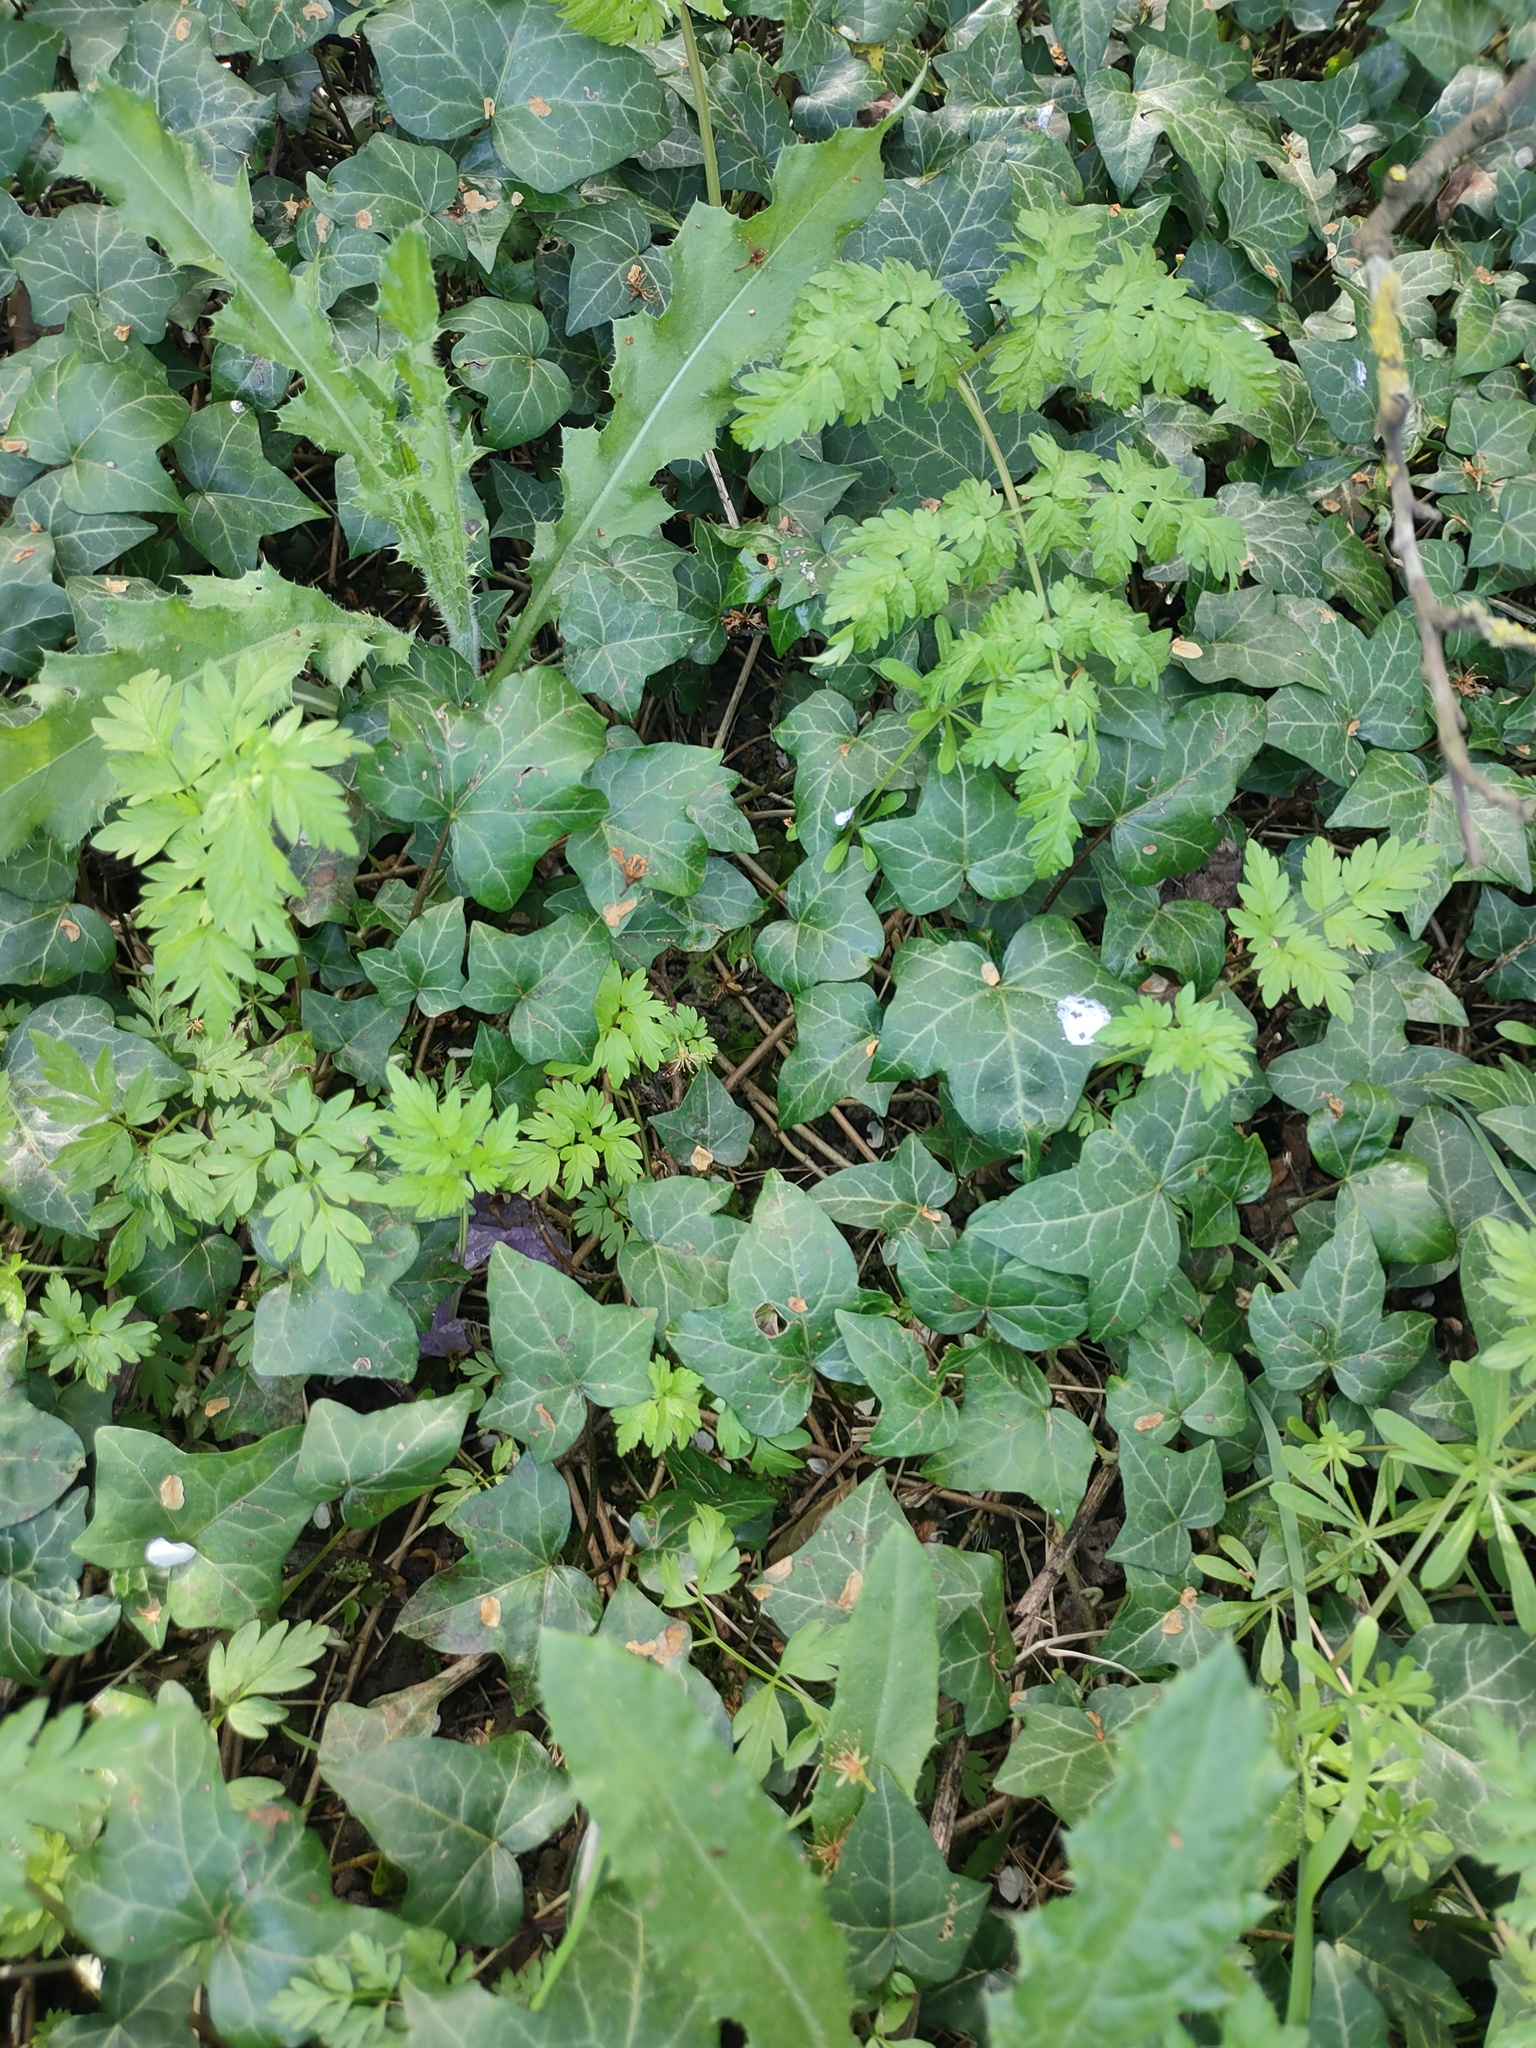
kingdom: Plantae
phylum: Tracheophyta
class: Magnoliopsida
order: Apiales
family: Araliaceae
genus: Hedera
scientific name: Hedera helix
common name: Ivy
